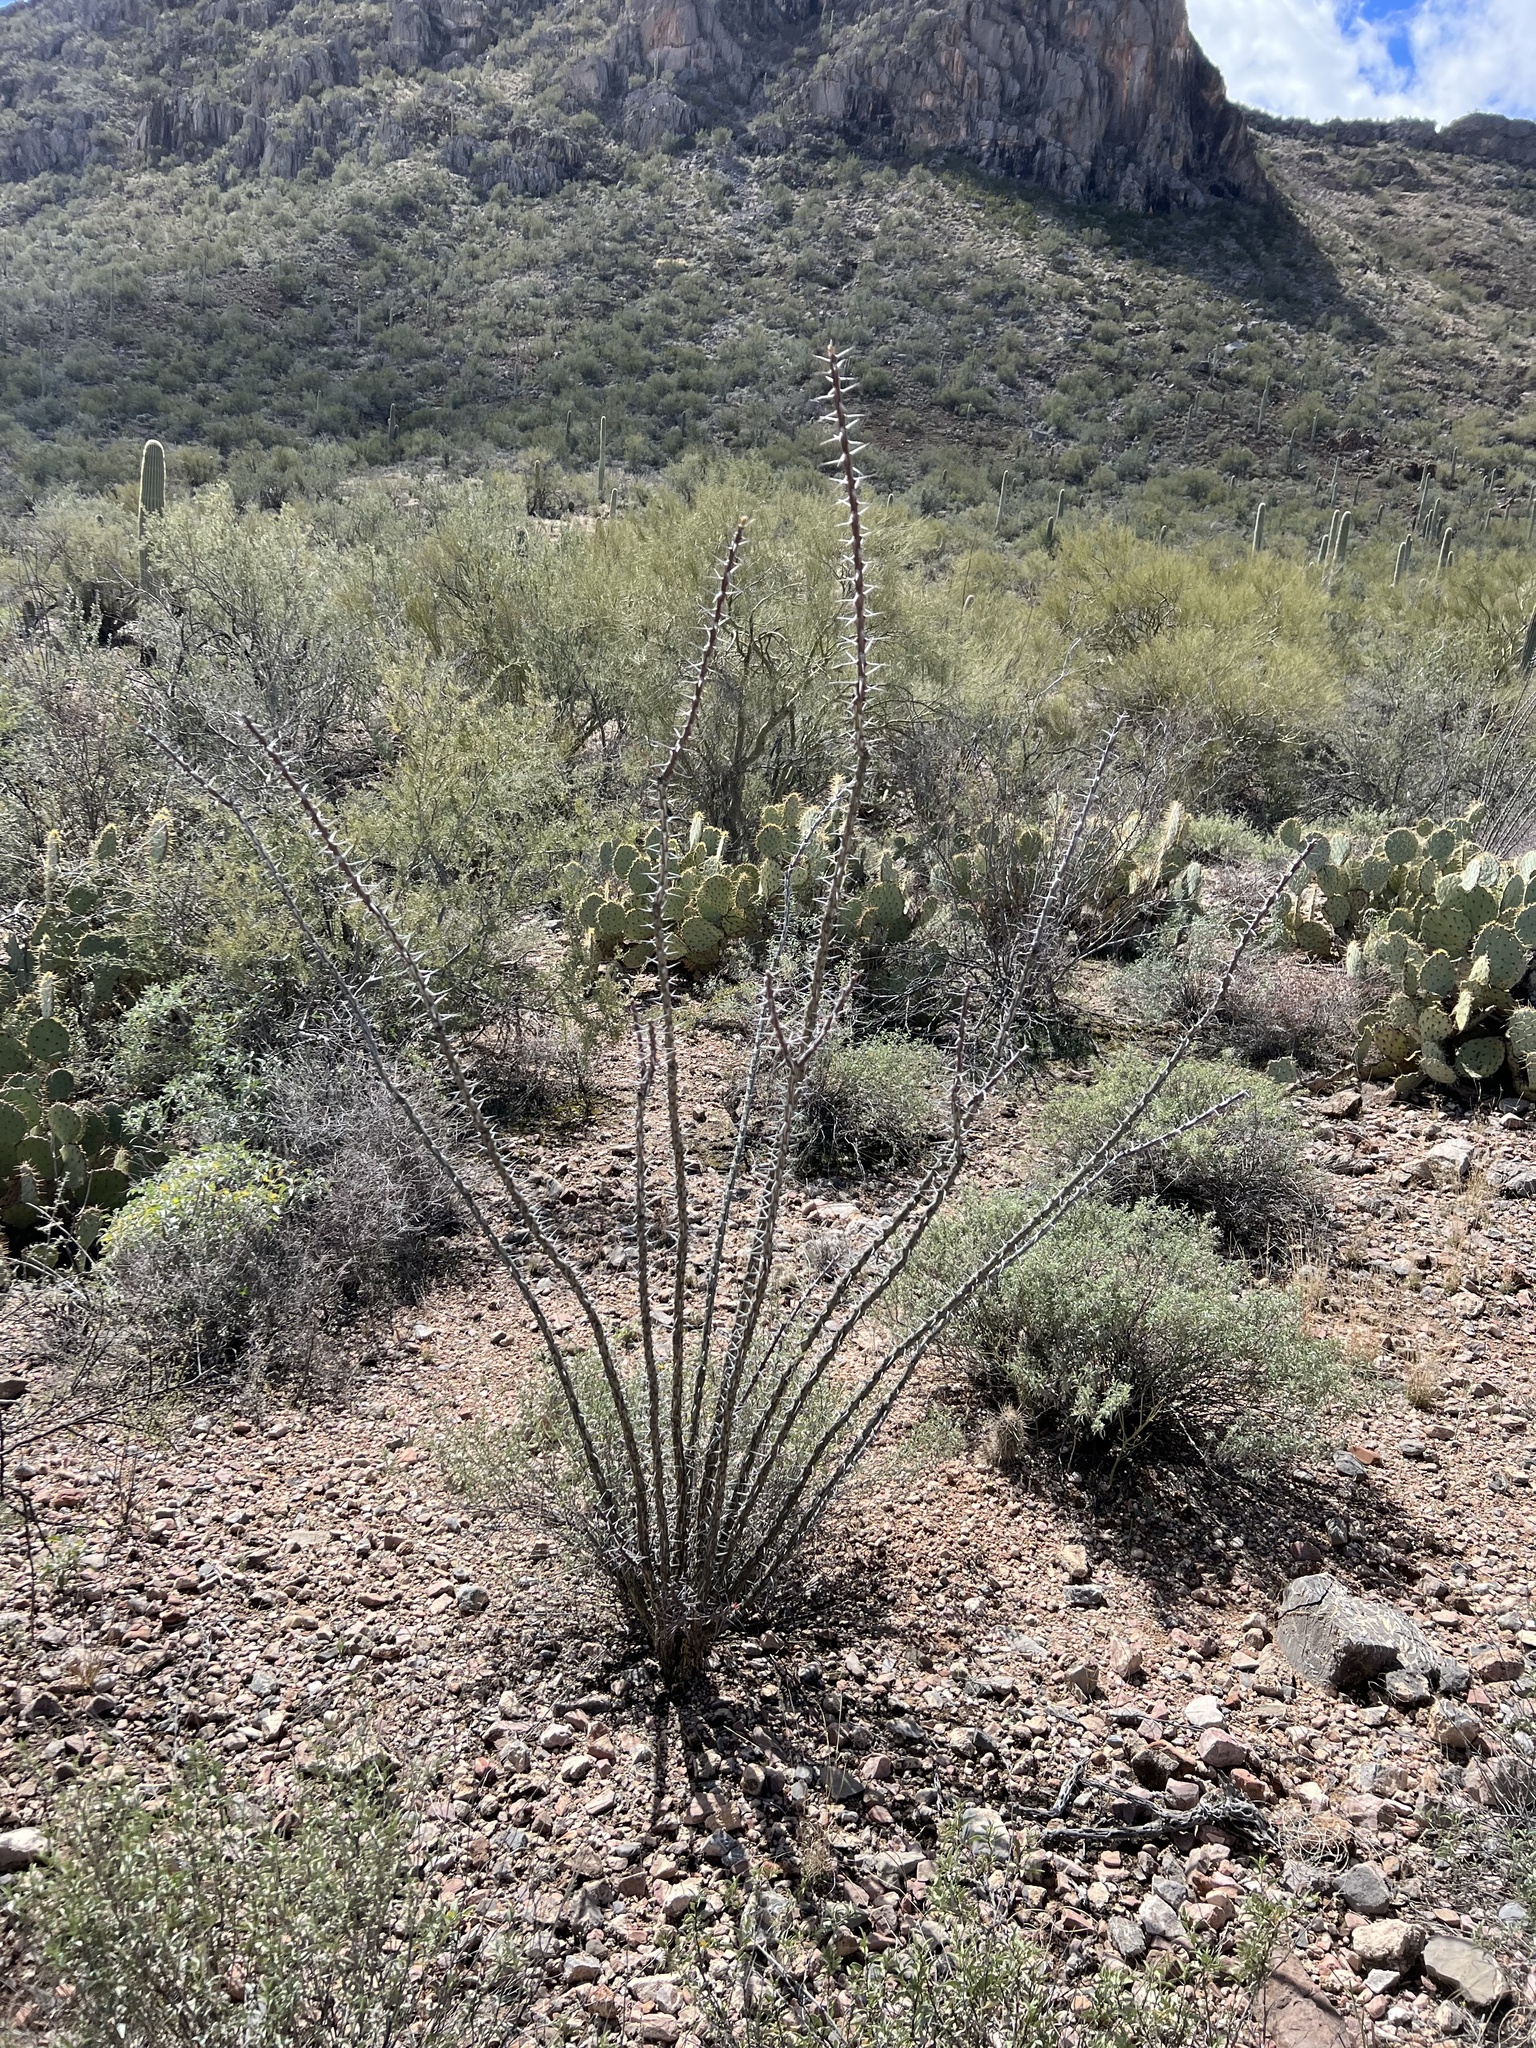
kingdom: Plantae
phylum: Tracheophyta
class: Magnoliopsida
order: Ericales
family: Fouquieriaceae
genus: Fouquieria
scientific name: Fouquieria splendens
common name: Vine-cactus
